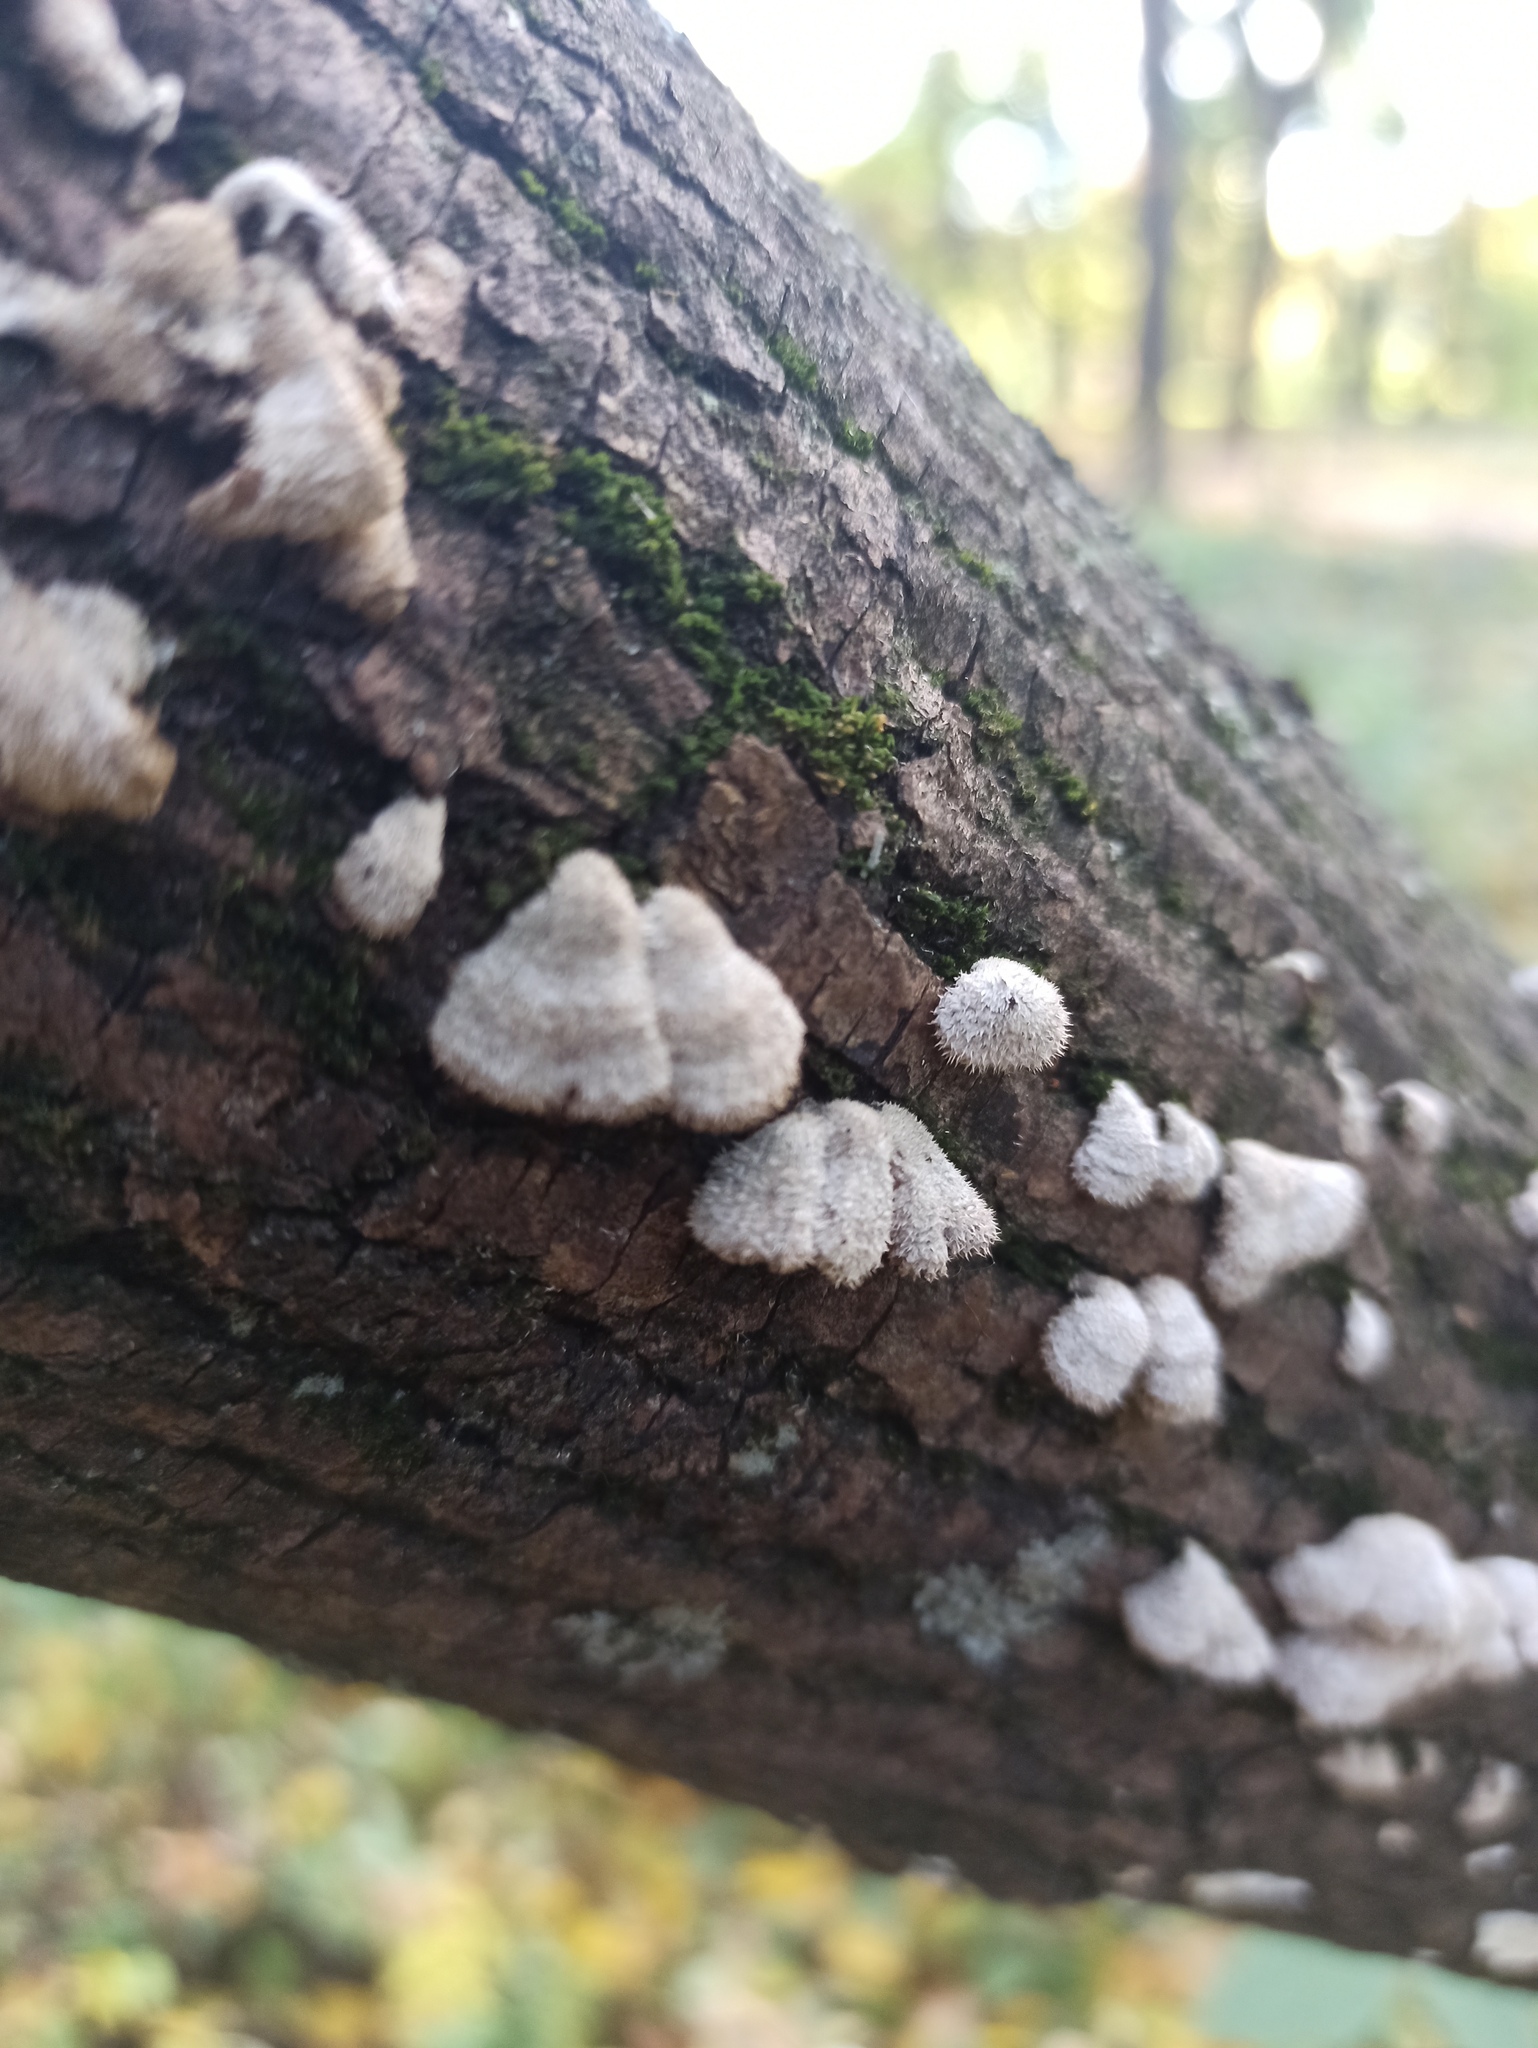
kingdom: Fungi
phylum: Basidiomycota
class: Agaricomycetes
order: Agaricales
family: Schizophyllaceae
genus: Schizophyllum
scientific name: Schizophyllum commune
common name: Common porecrust
